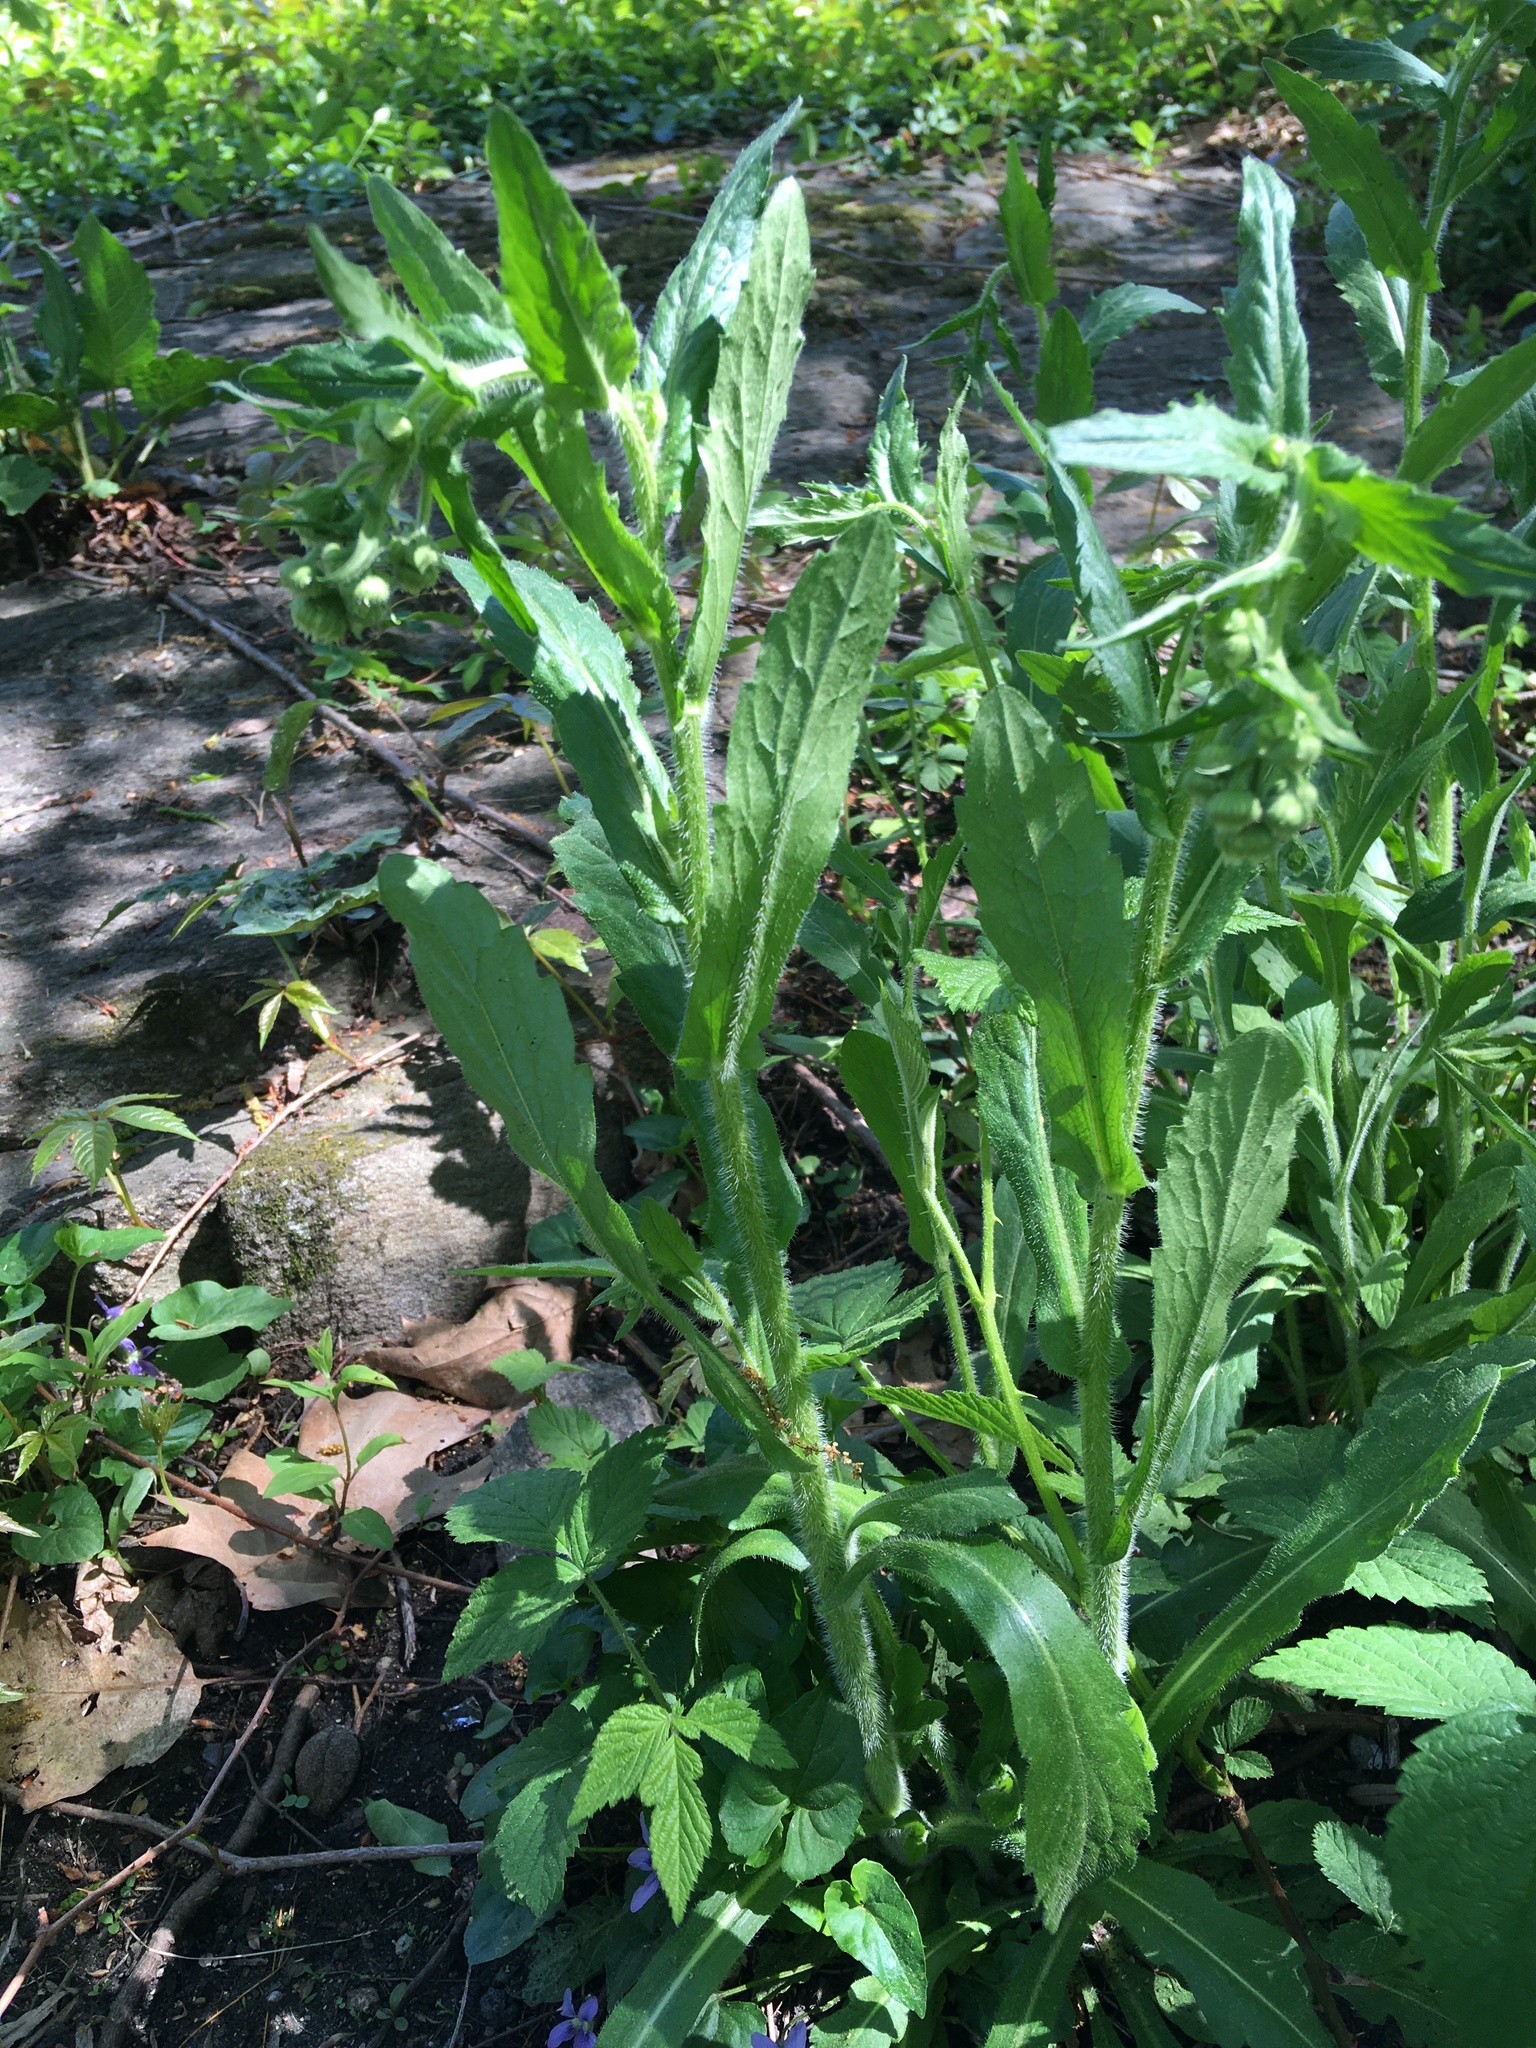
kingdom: Plantae
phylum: Tracheophyta
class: Magnoliopsida
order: Asterales
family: Asteraceae
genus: Erigeron
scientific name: Erigeron philadelphicus
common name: Robin's-plantain
